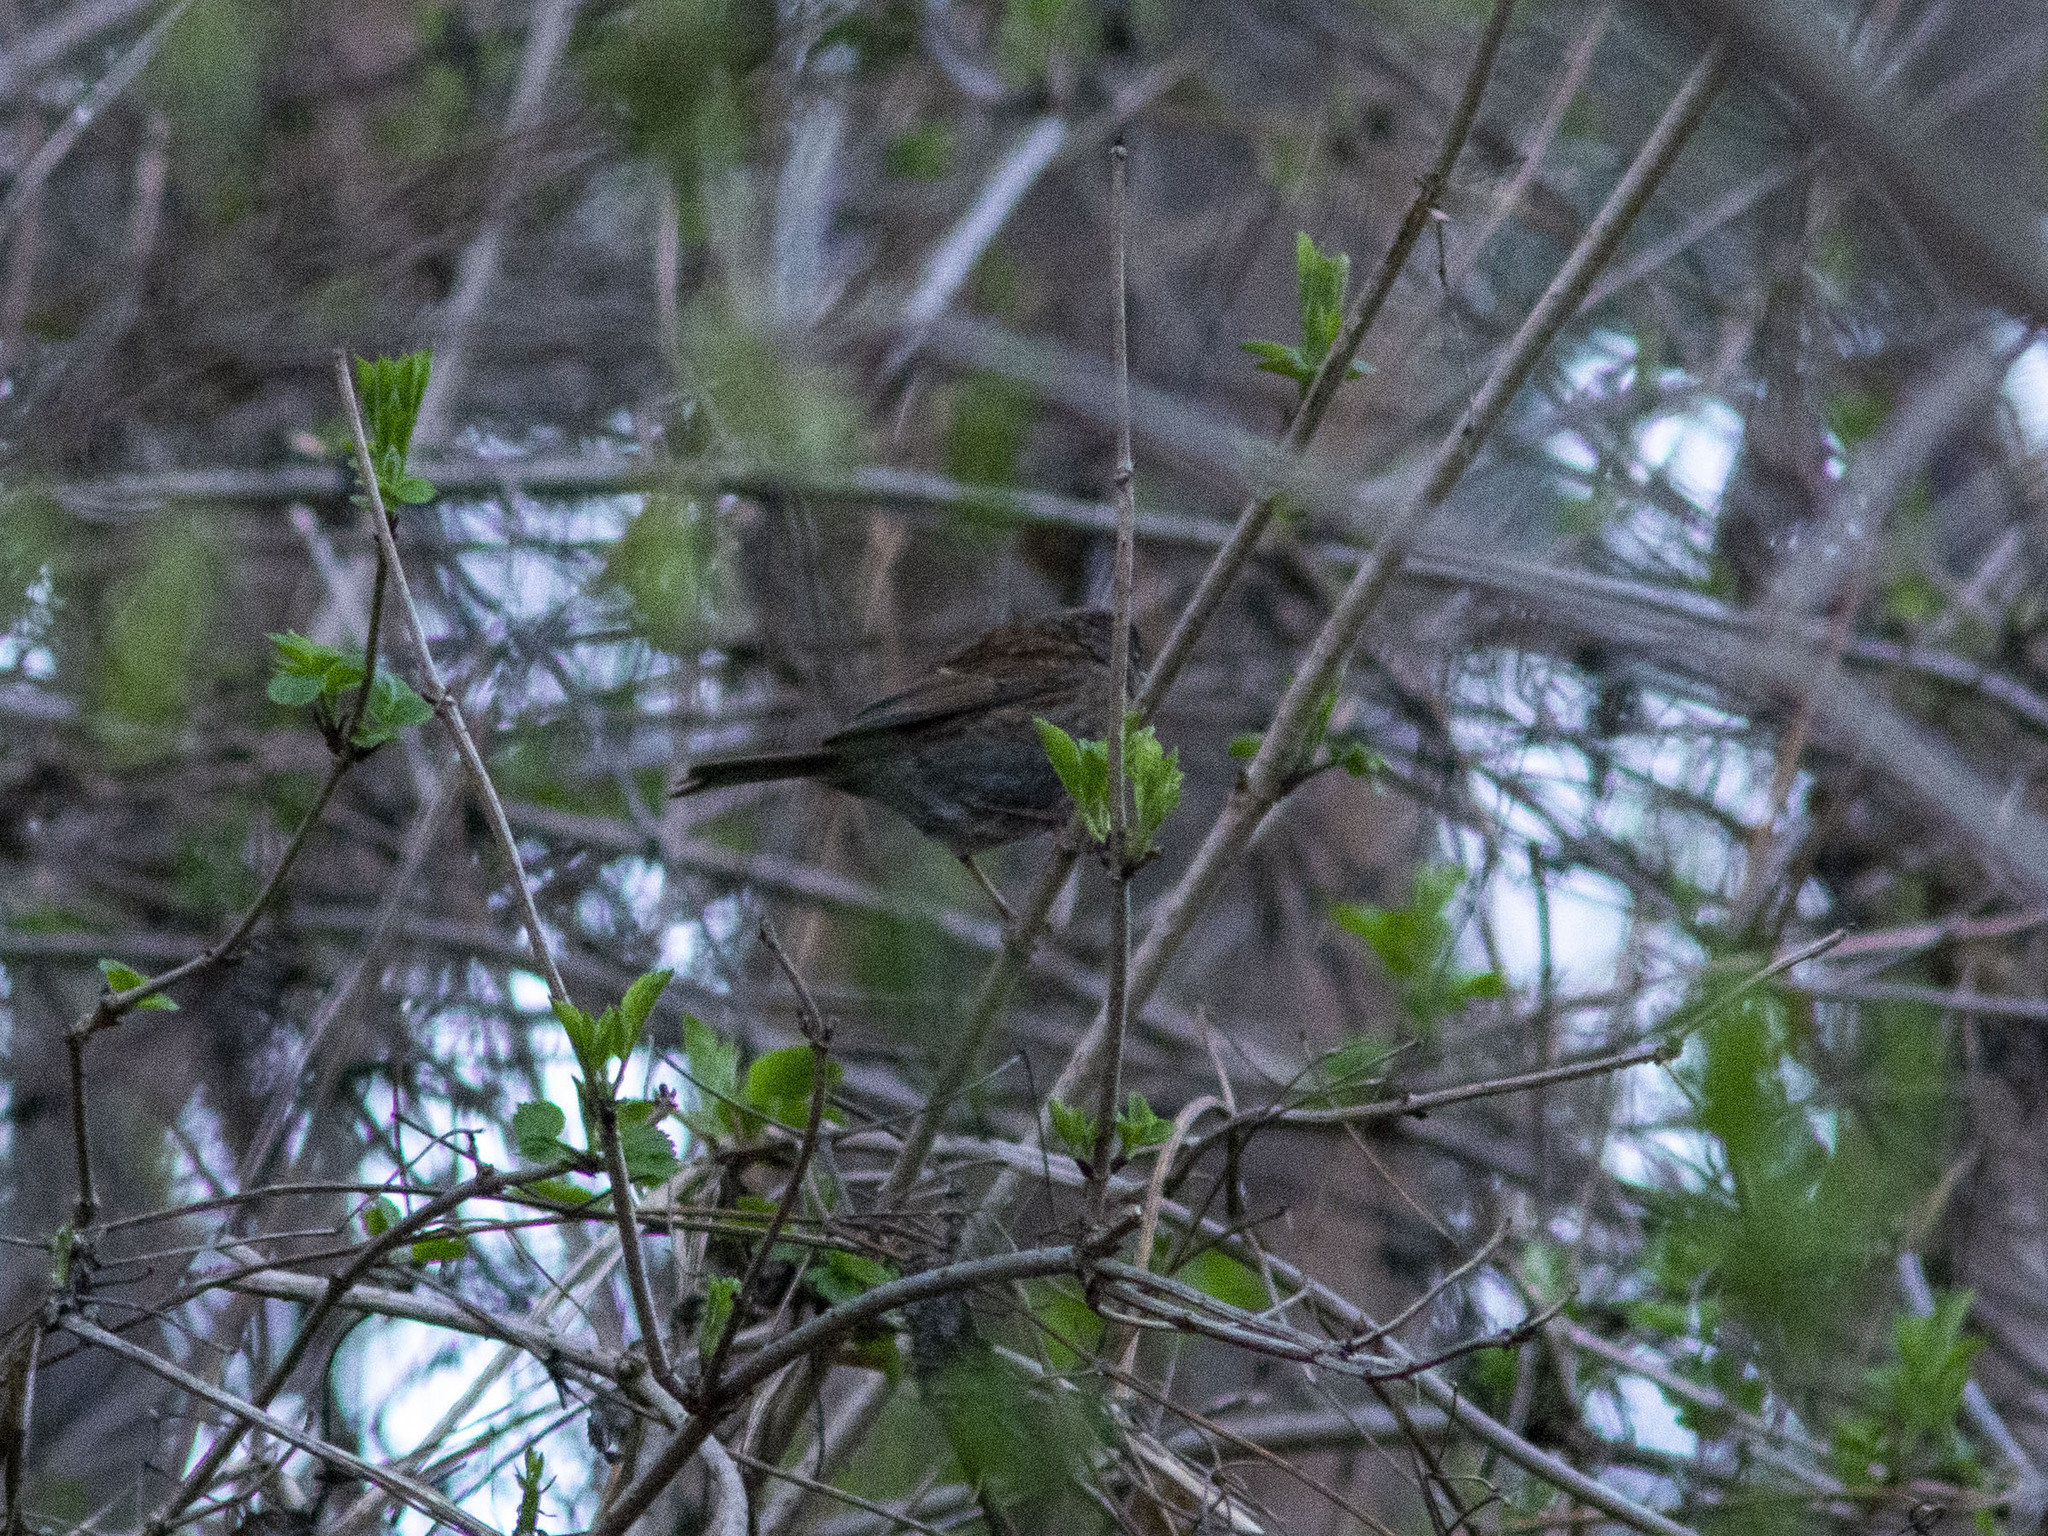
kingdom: Animalia
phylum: Chordata
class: Aves
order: Passeriformes
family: Prunellidae
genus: Prunella
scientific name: Prunella modularis
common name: Dunnock
